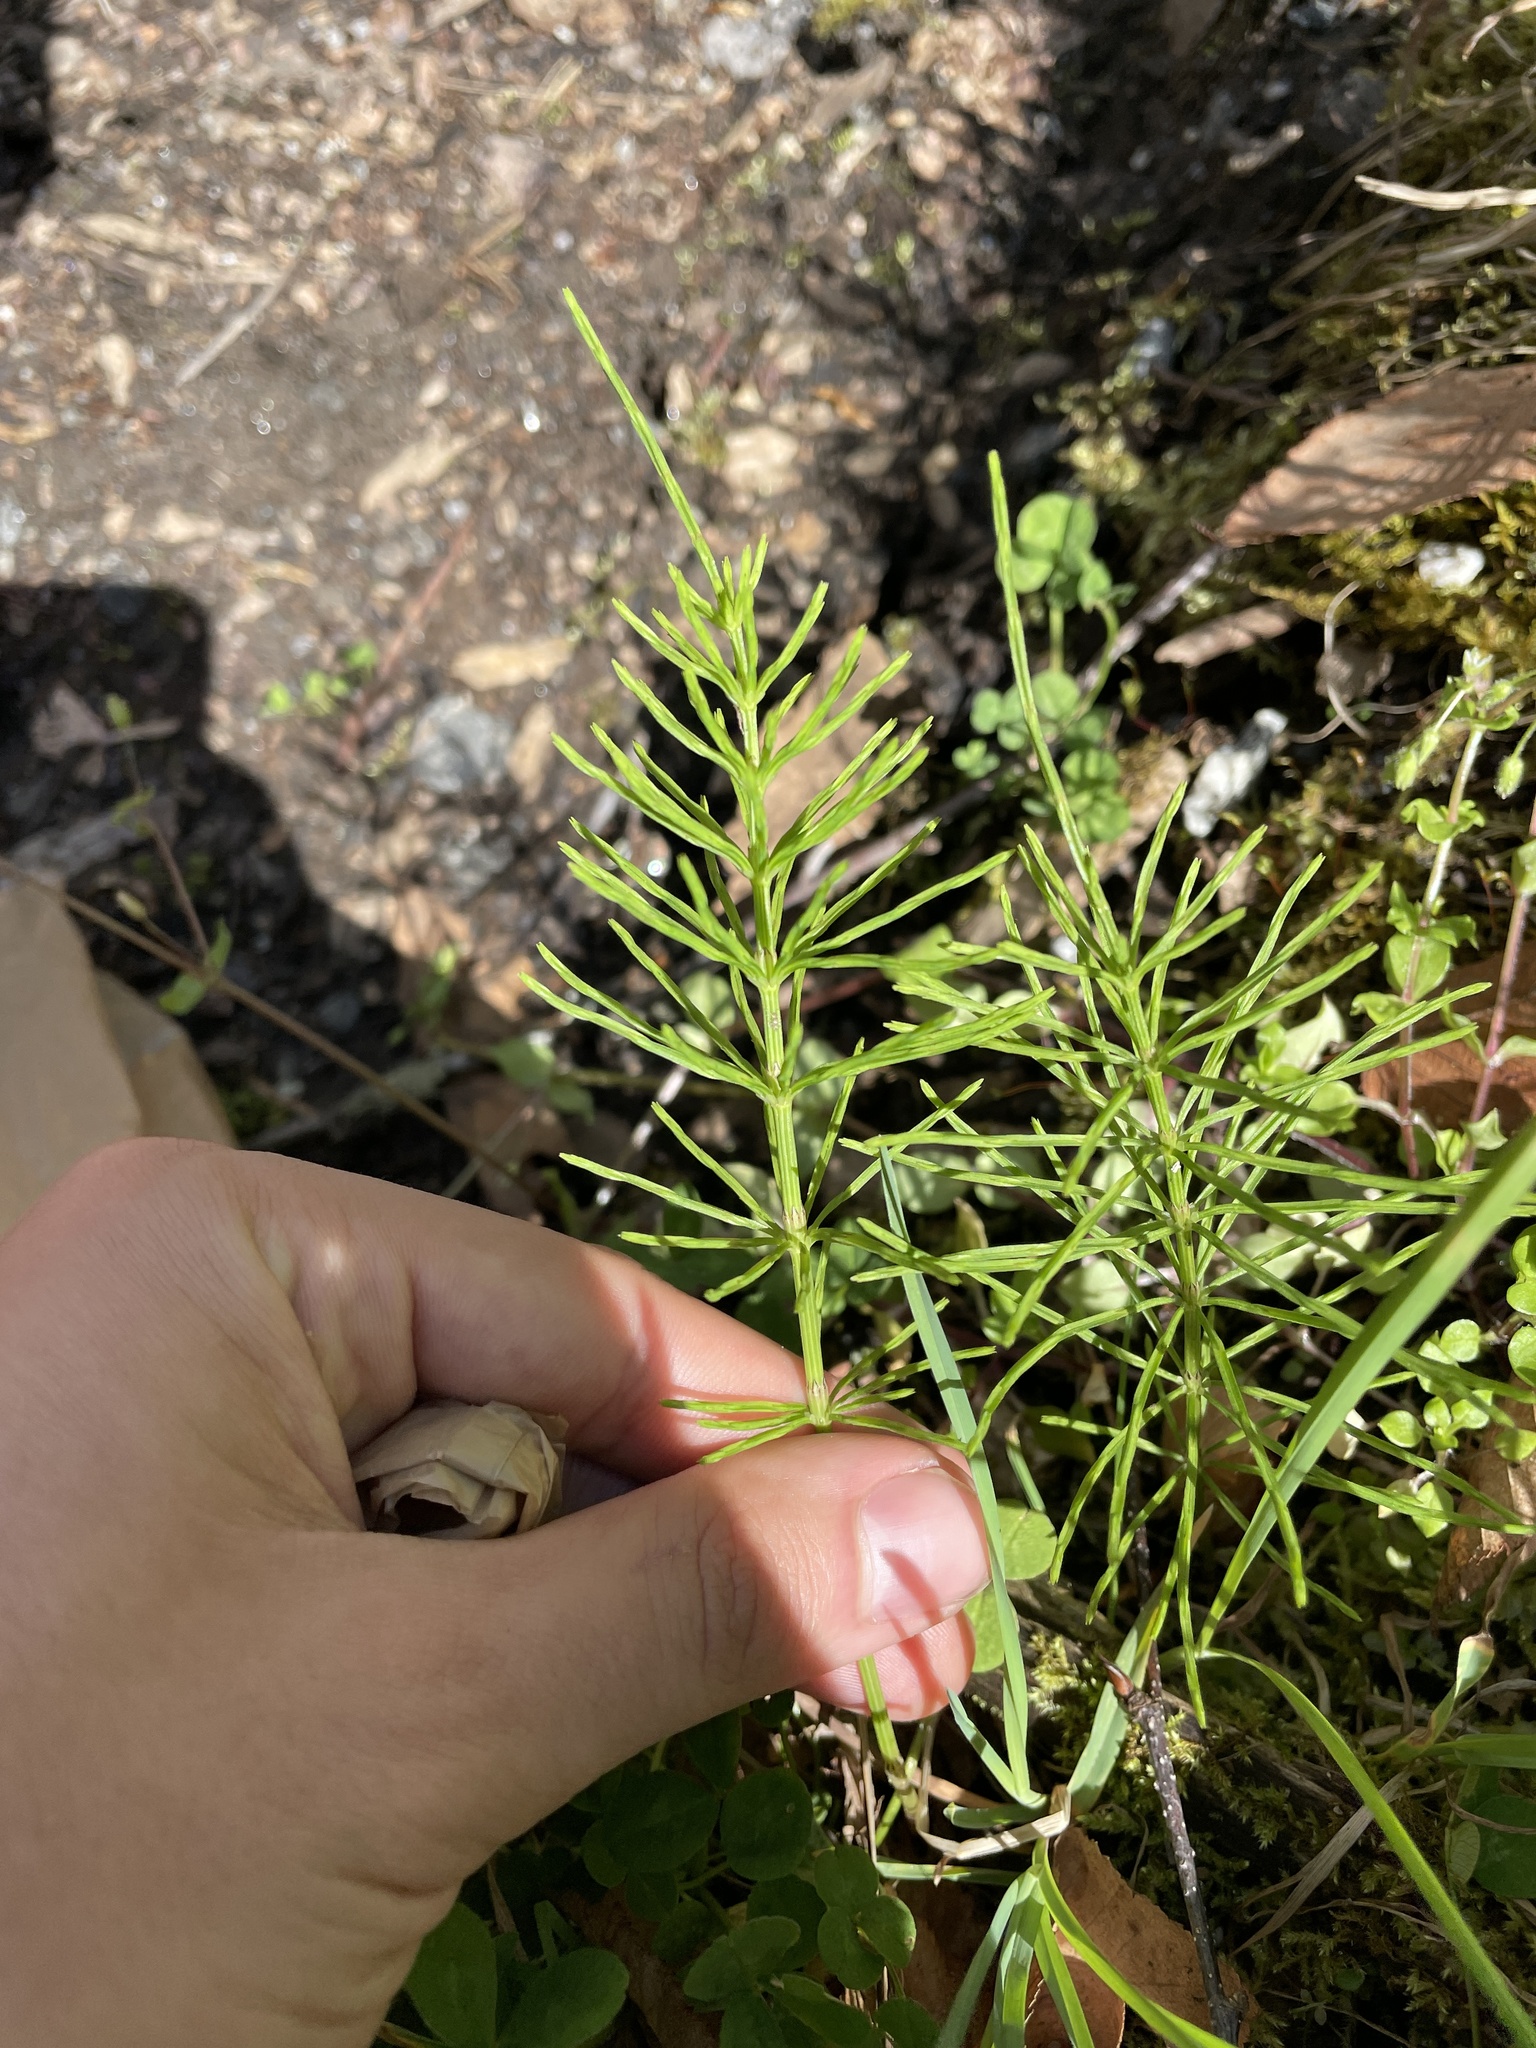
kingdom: Plantae
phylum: Tracheophyta
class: Polypodiopsida
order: Equisetales
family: Equisetaceae
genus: Equisetum
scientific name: Equisetum arvense
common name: Field horsetail
